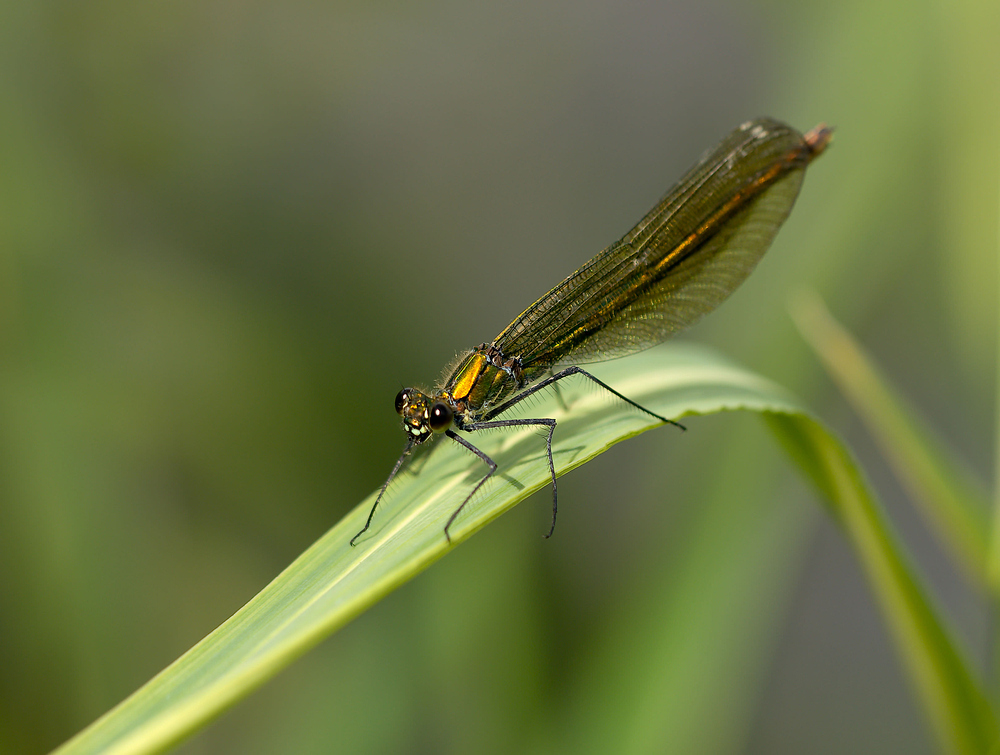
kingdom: Animalia
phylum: Arthropoda
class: Insecta
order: Odonata
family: Calopterygidae
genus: Calopteryx
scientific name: Calopteryx splendens
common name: Banded demoiselle
